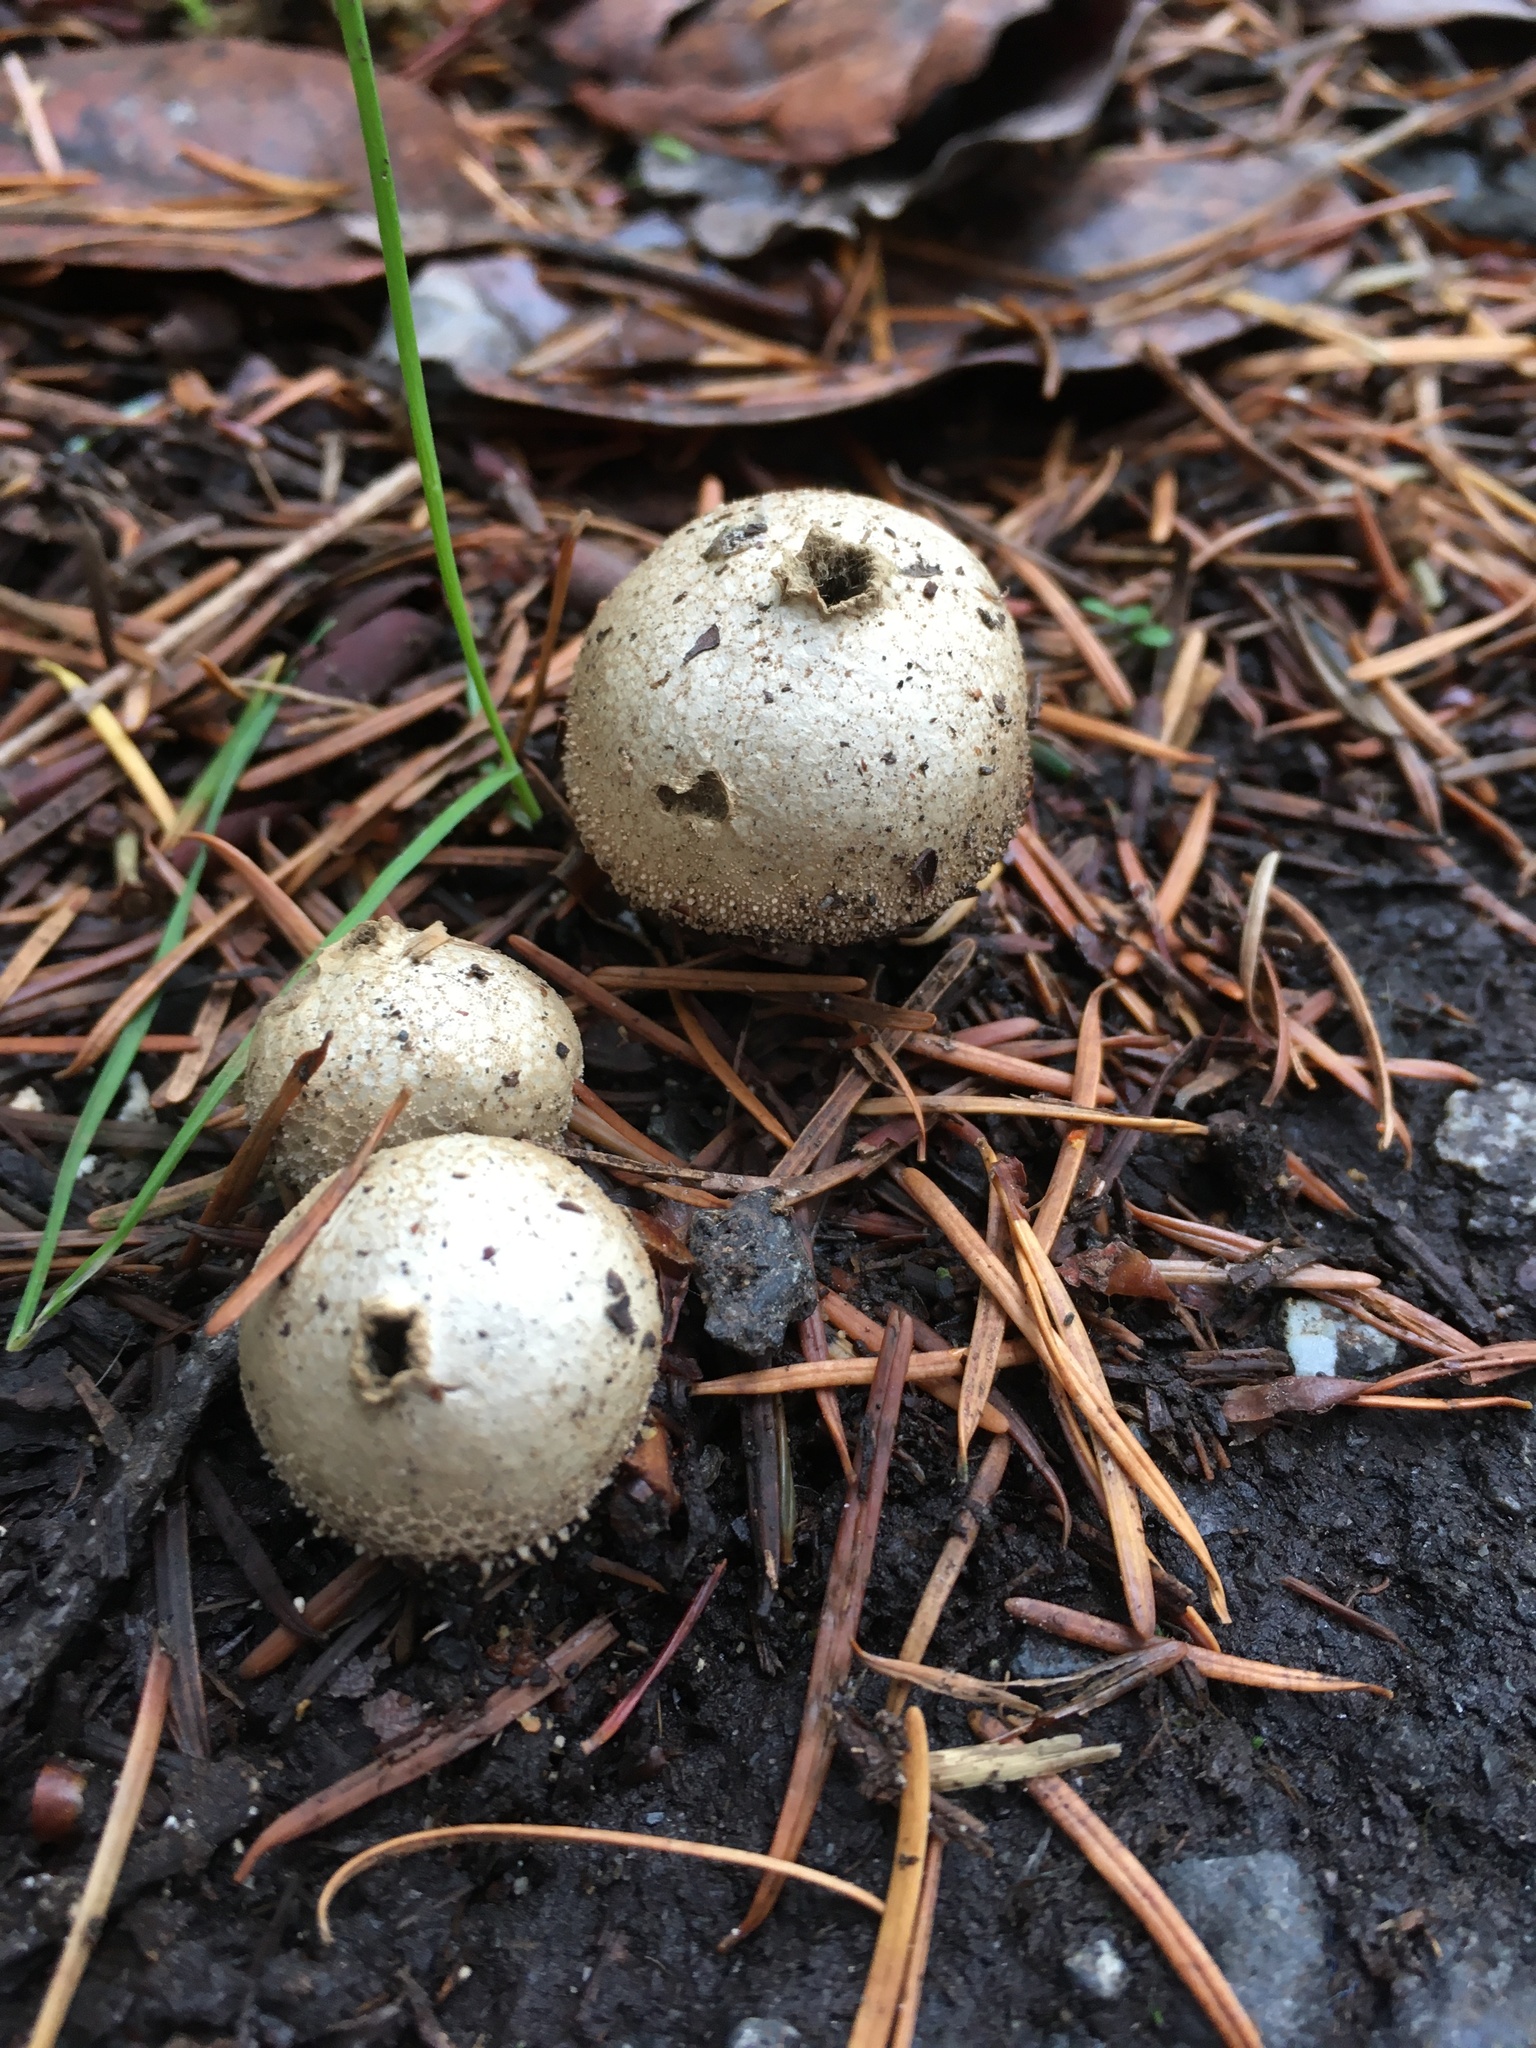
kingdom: Fungi
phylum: Basidiomycota
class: Agaricomycetes
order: Agaricales
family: Lycoperdaceae
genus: Lycoperdon
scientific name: Lycoperdon perlatum
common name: Common puffball
